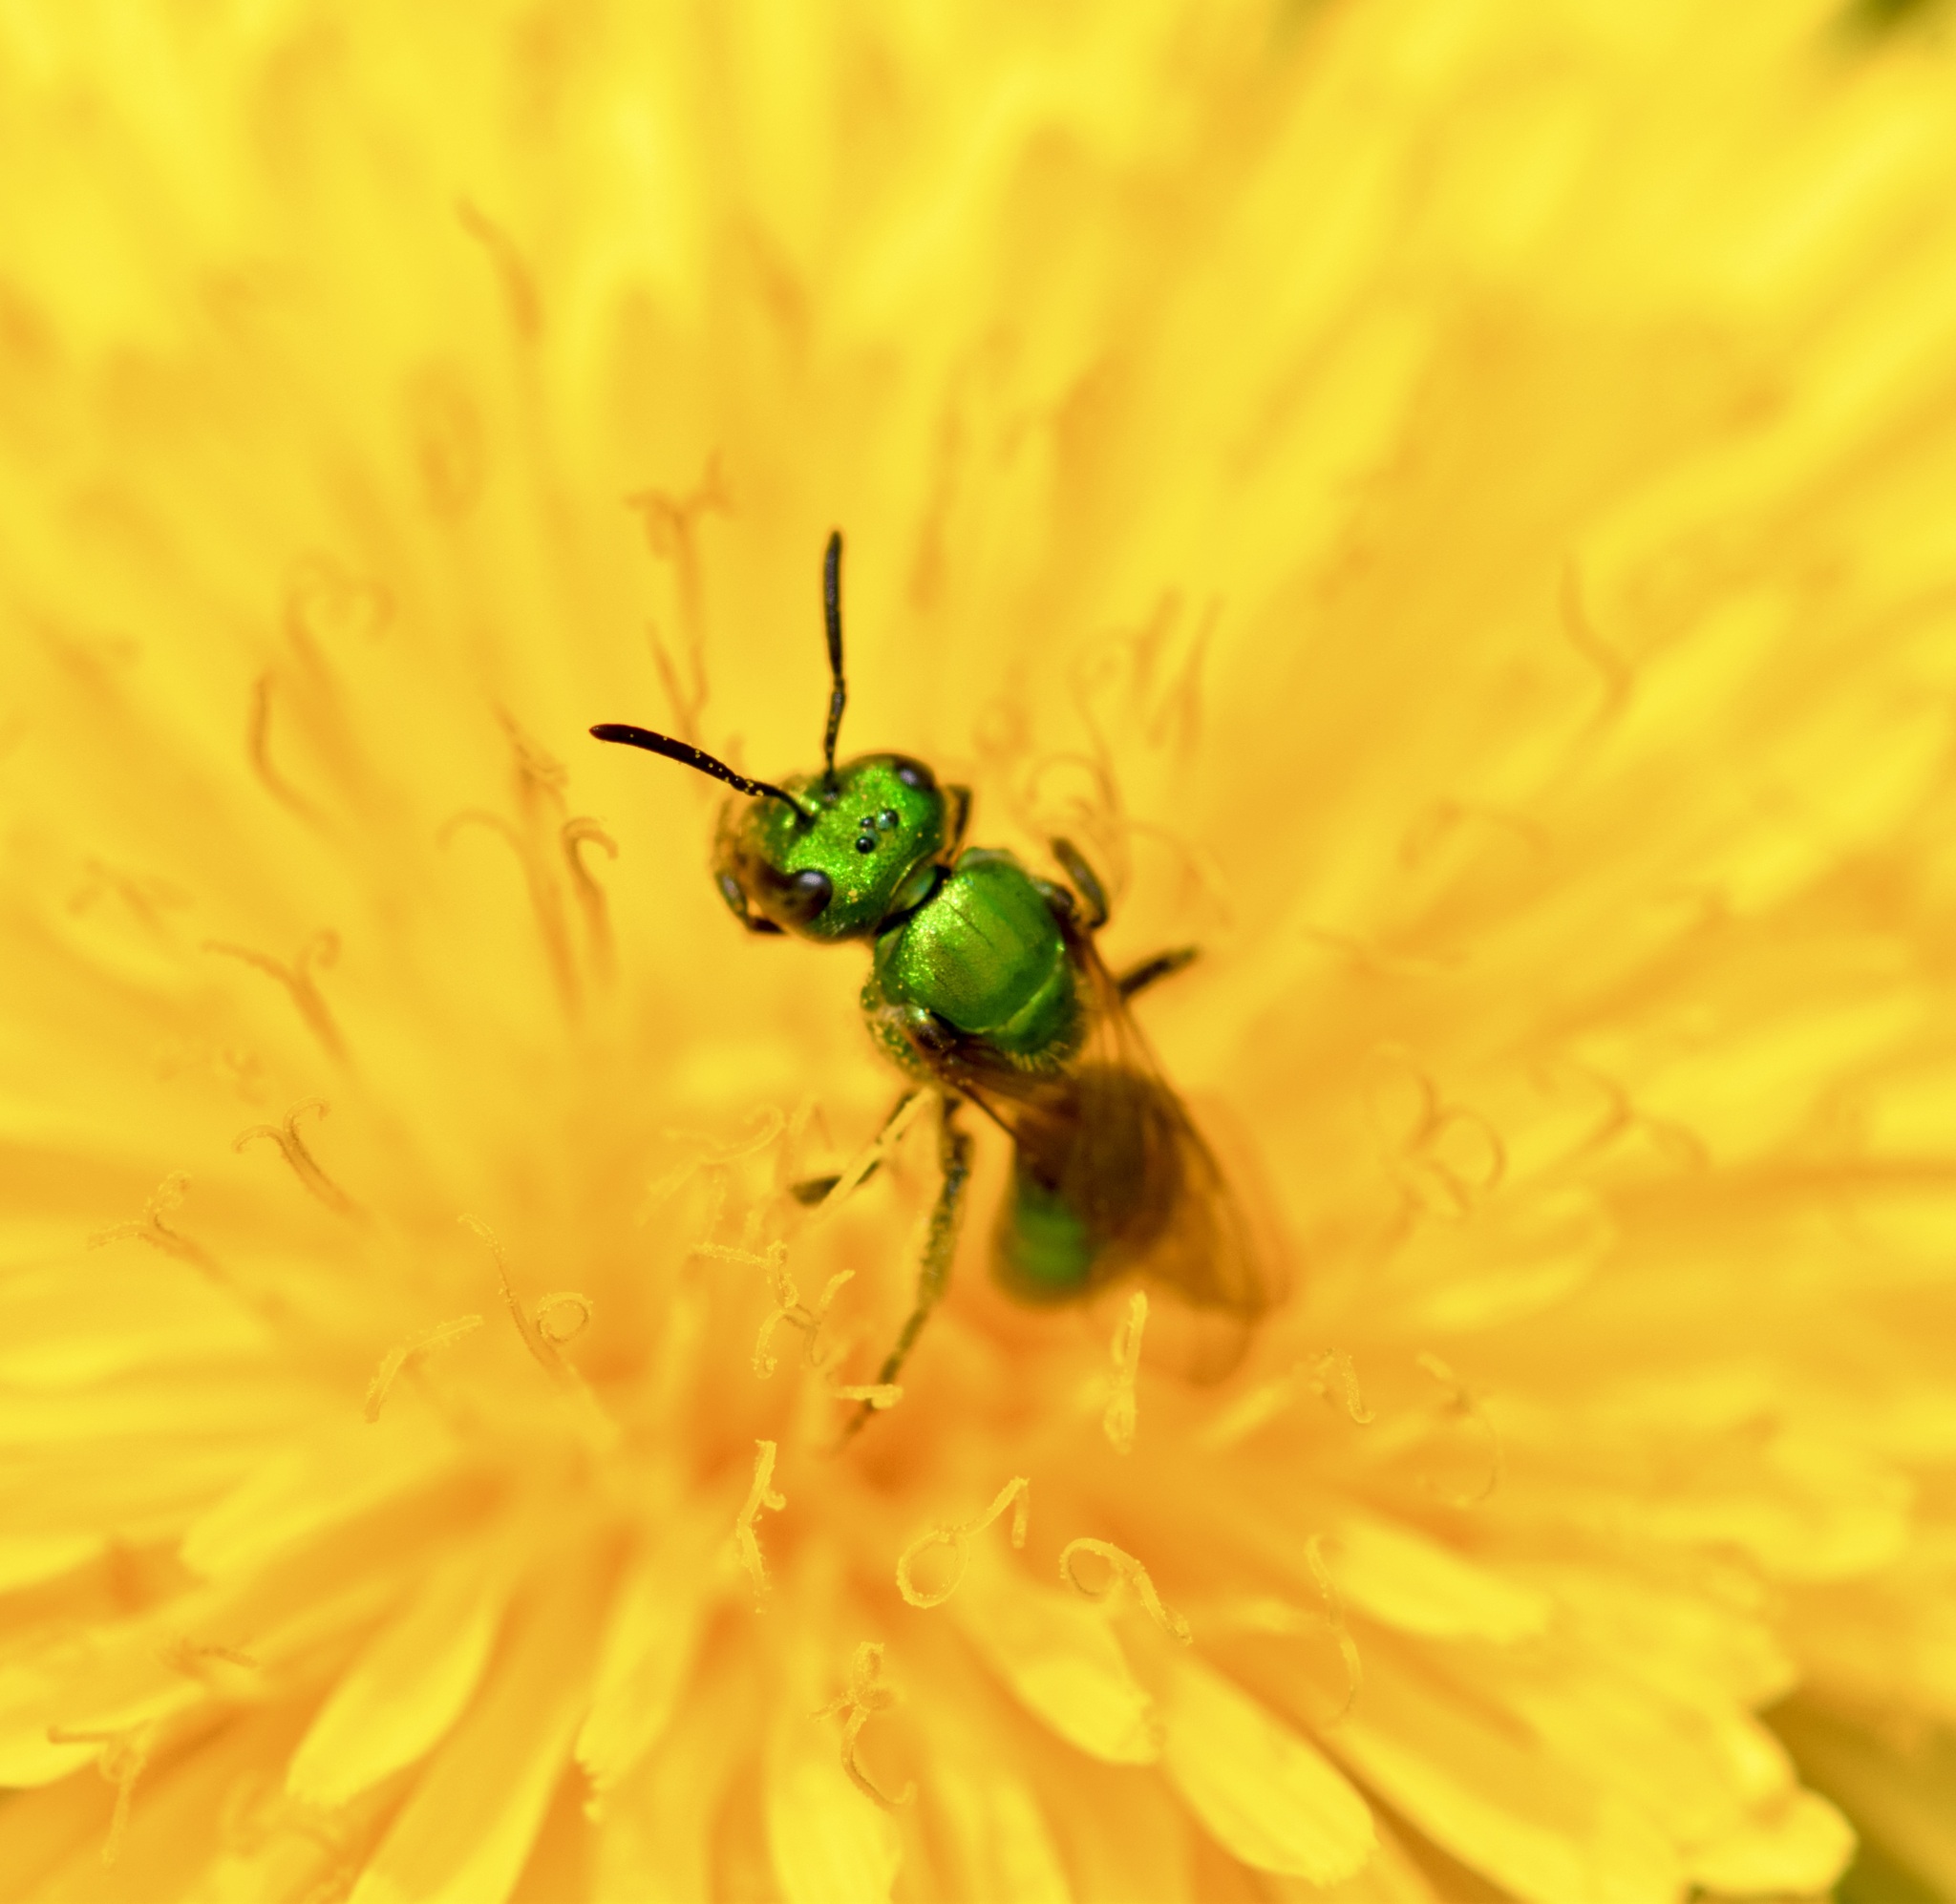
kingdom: Animalia
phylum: Arthropoda
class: Insecta
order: Hymenoptera
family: Halictidae
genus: Augochlora
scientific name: Augochlora pura
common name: Pure green sweat bee
